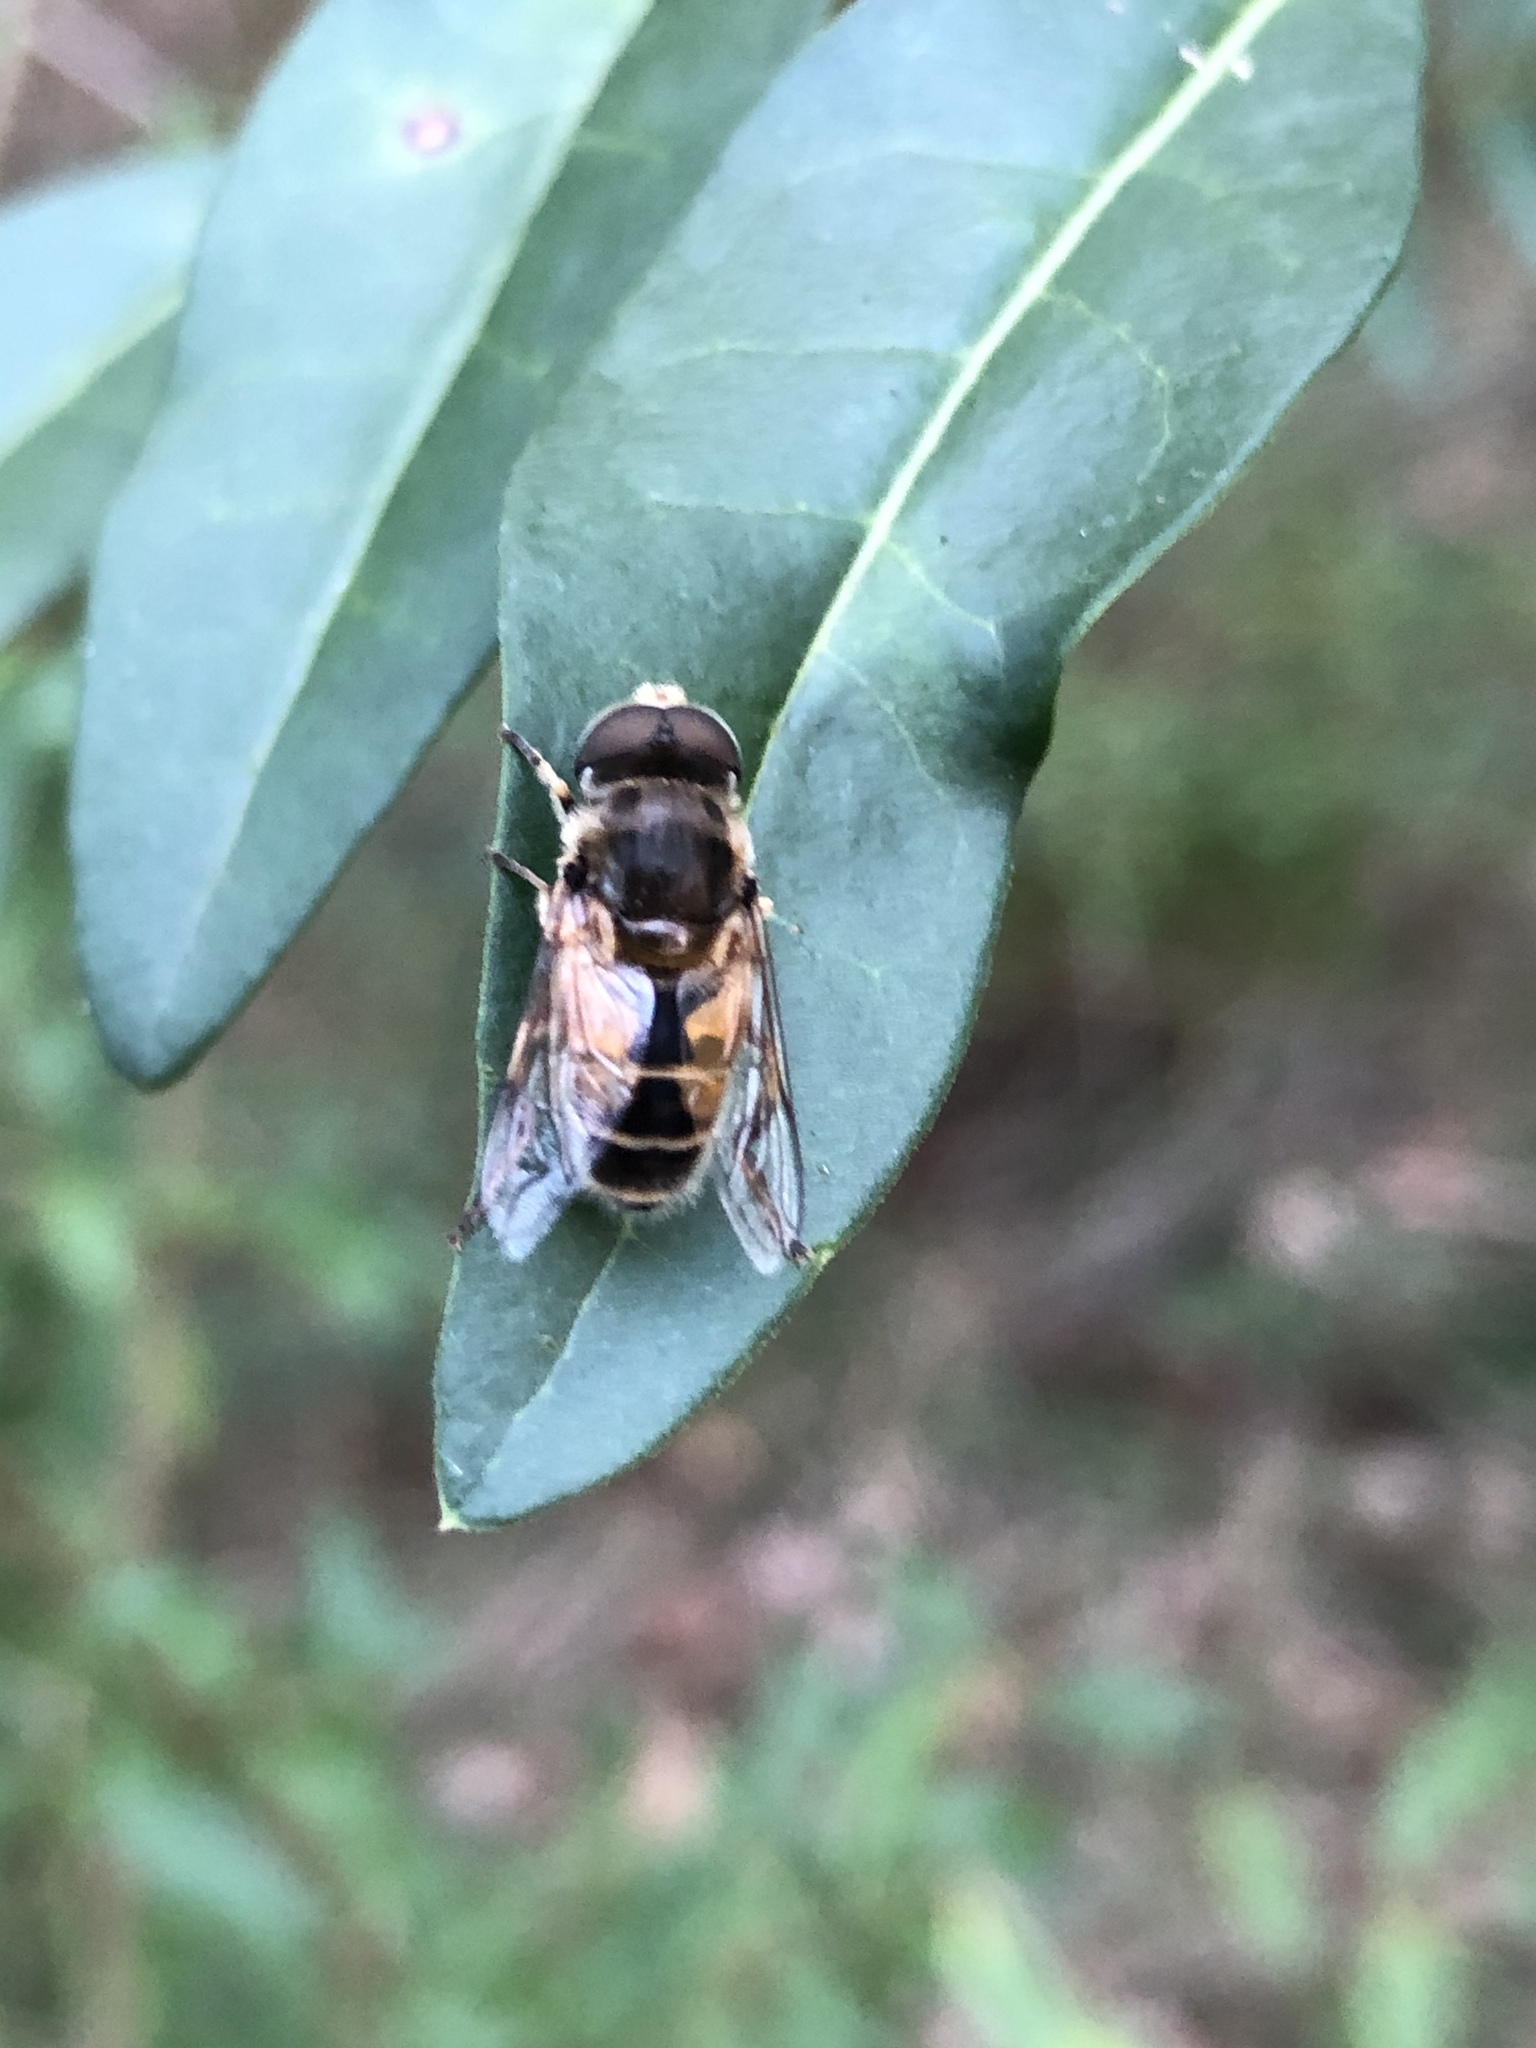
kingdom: Animalia
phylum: Arthropoda
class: Insecta
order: Diptera
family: Syrphidae
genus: Eristalis
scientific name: Eristalis arbustorum
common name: Hover fly
